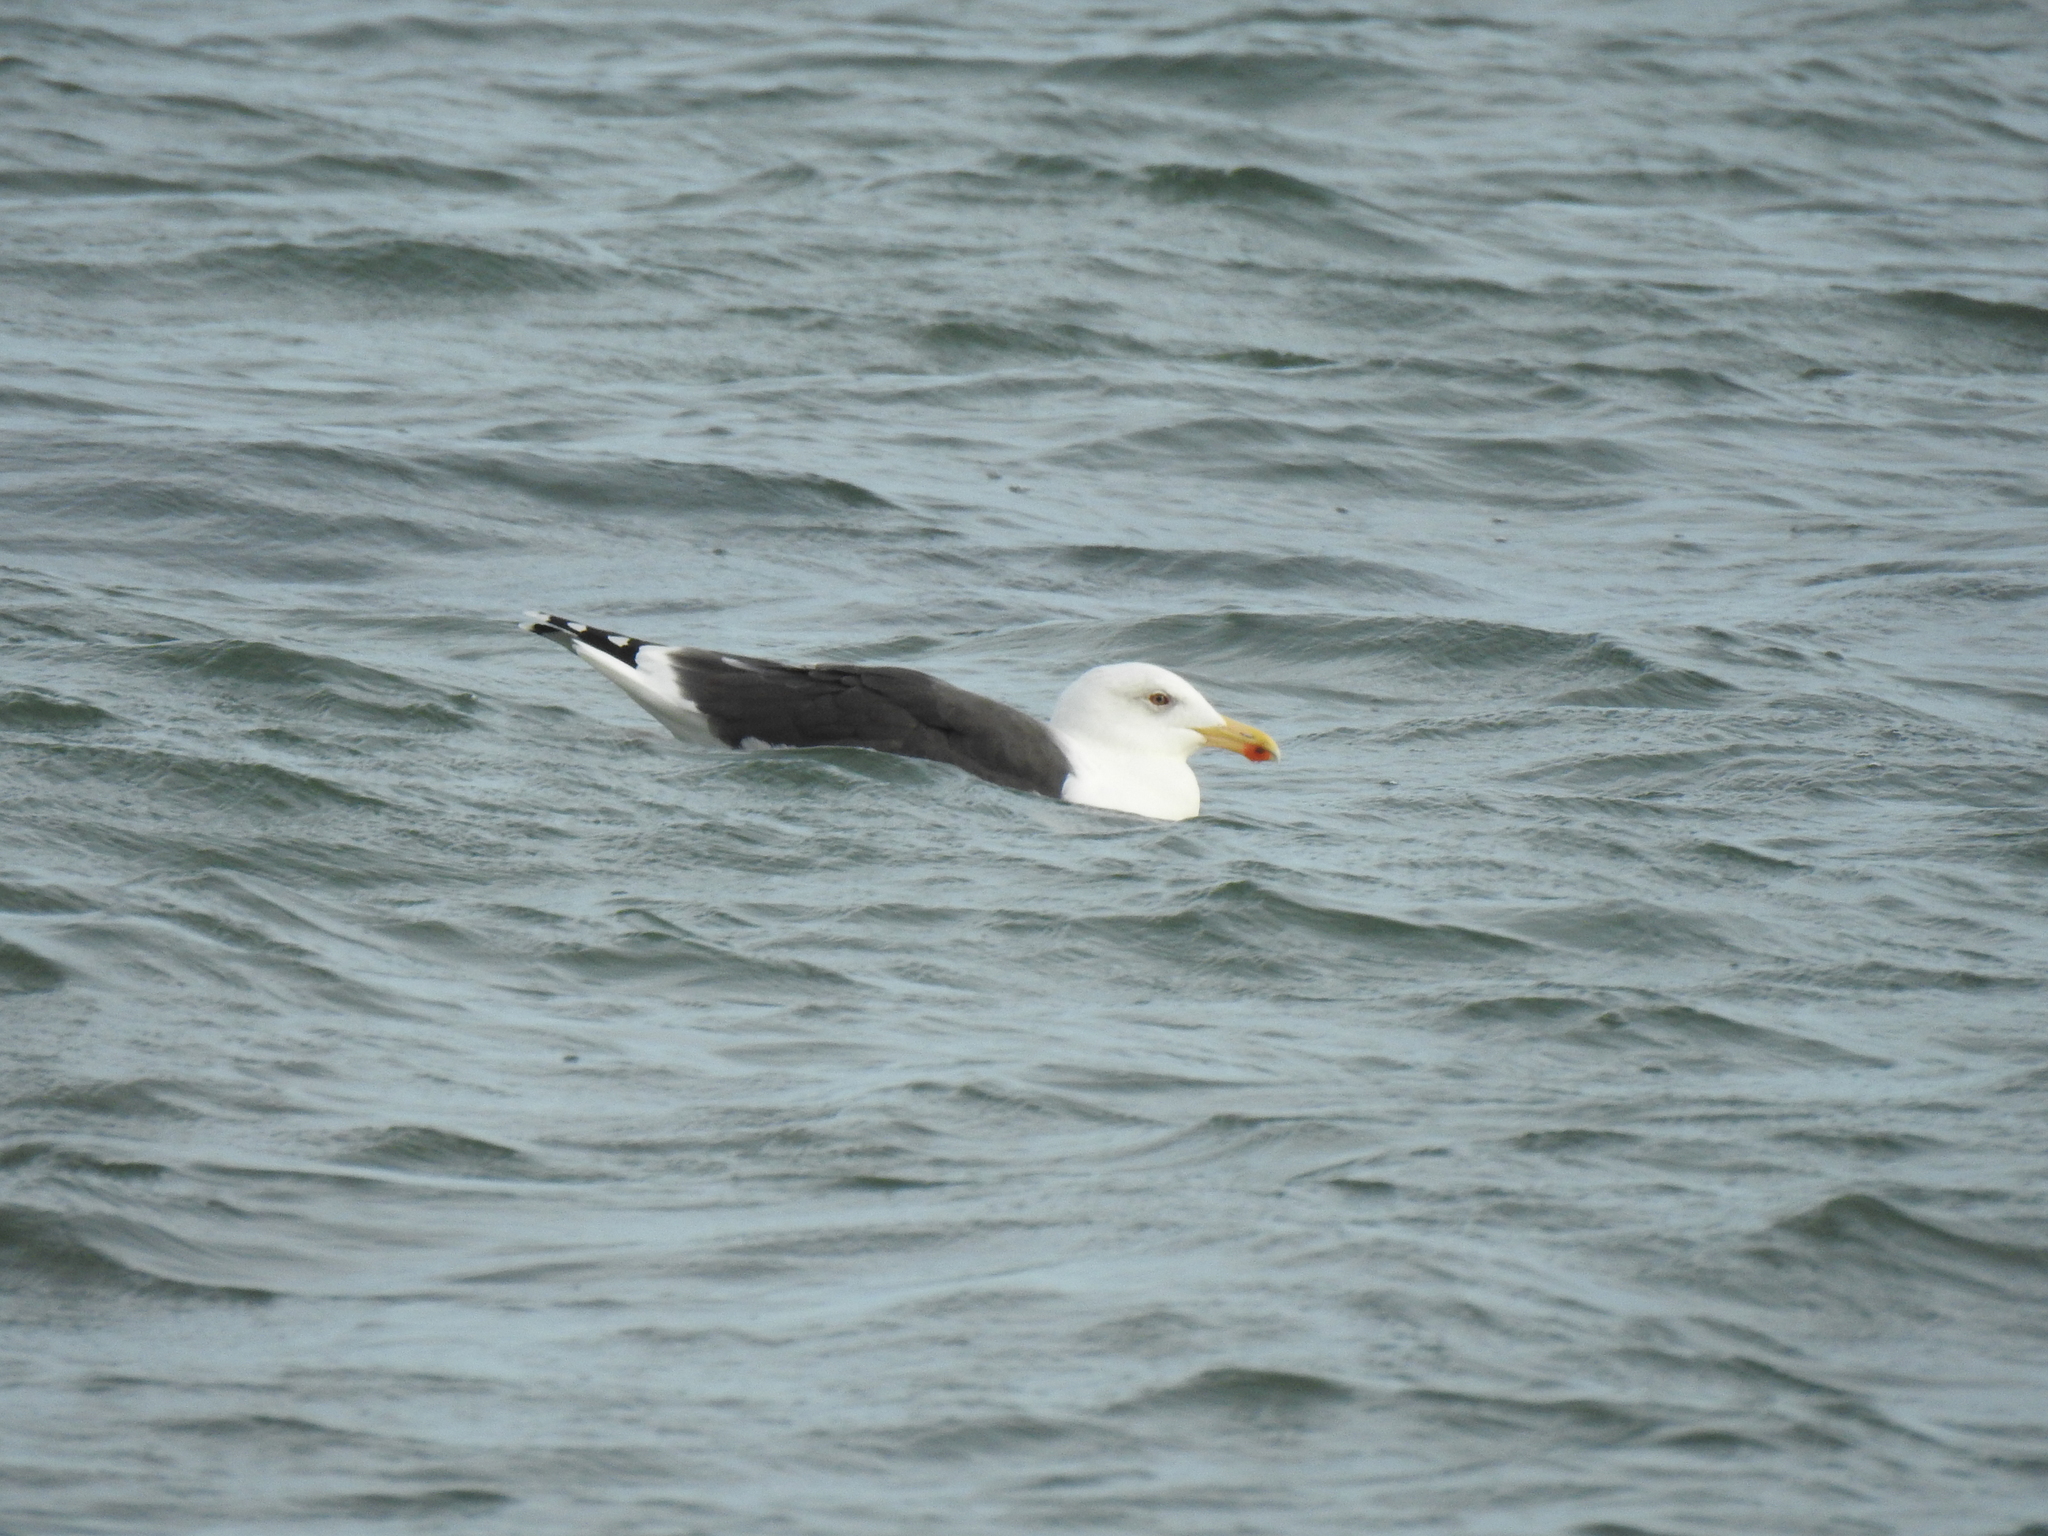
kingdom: Animalia
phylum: Chordata
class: Aves
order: Charadriiformes
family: Laridae
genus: Larus
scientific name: Larus marinus
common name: Great black-backed gull
